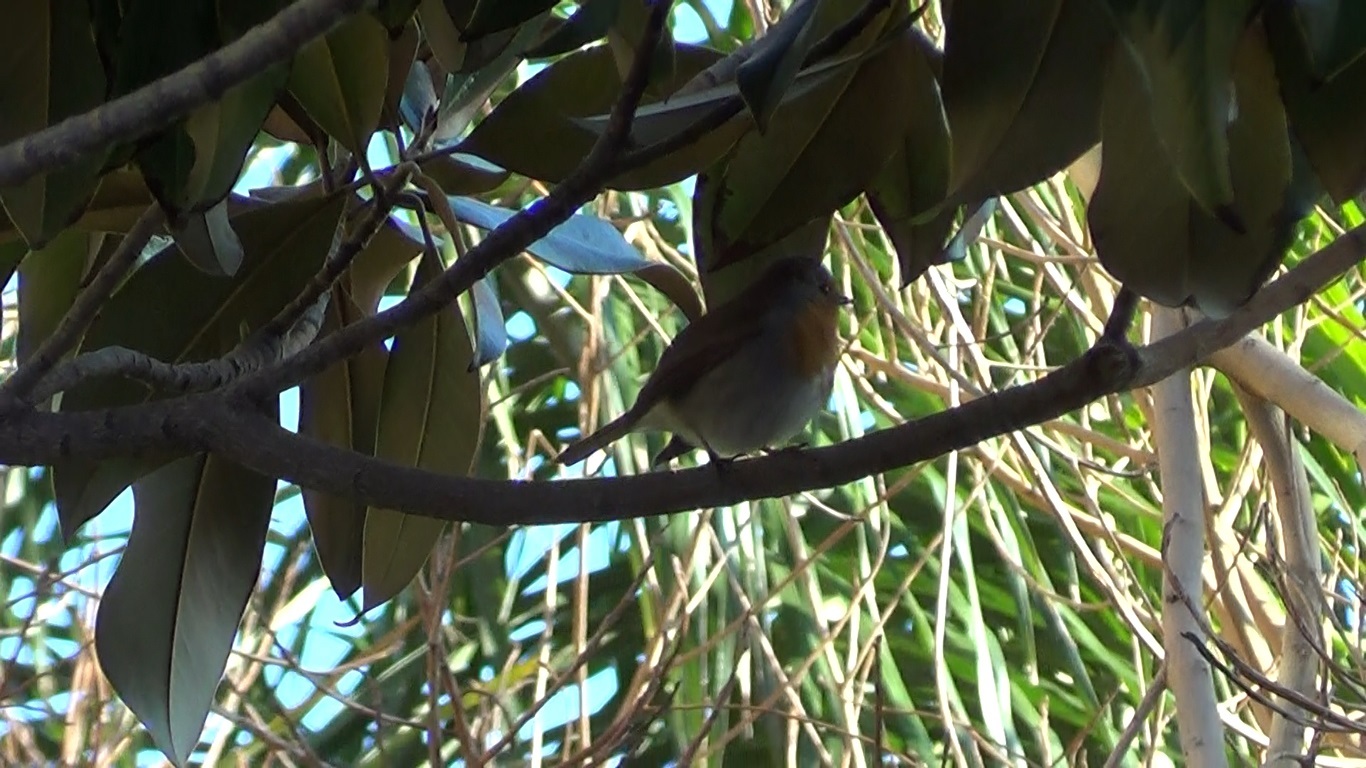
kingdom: Animalia
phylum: Chordata
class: Aves
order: Passeriformes
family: Muscicapidae
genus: Erithacus
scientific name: Erithacus rubecula
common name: European robin
